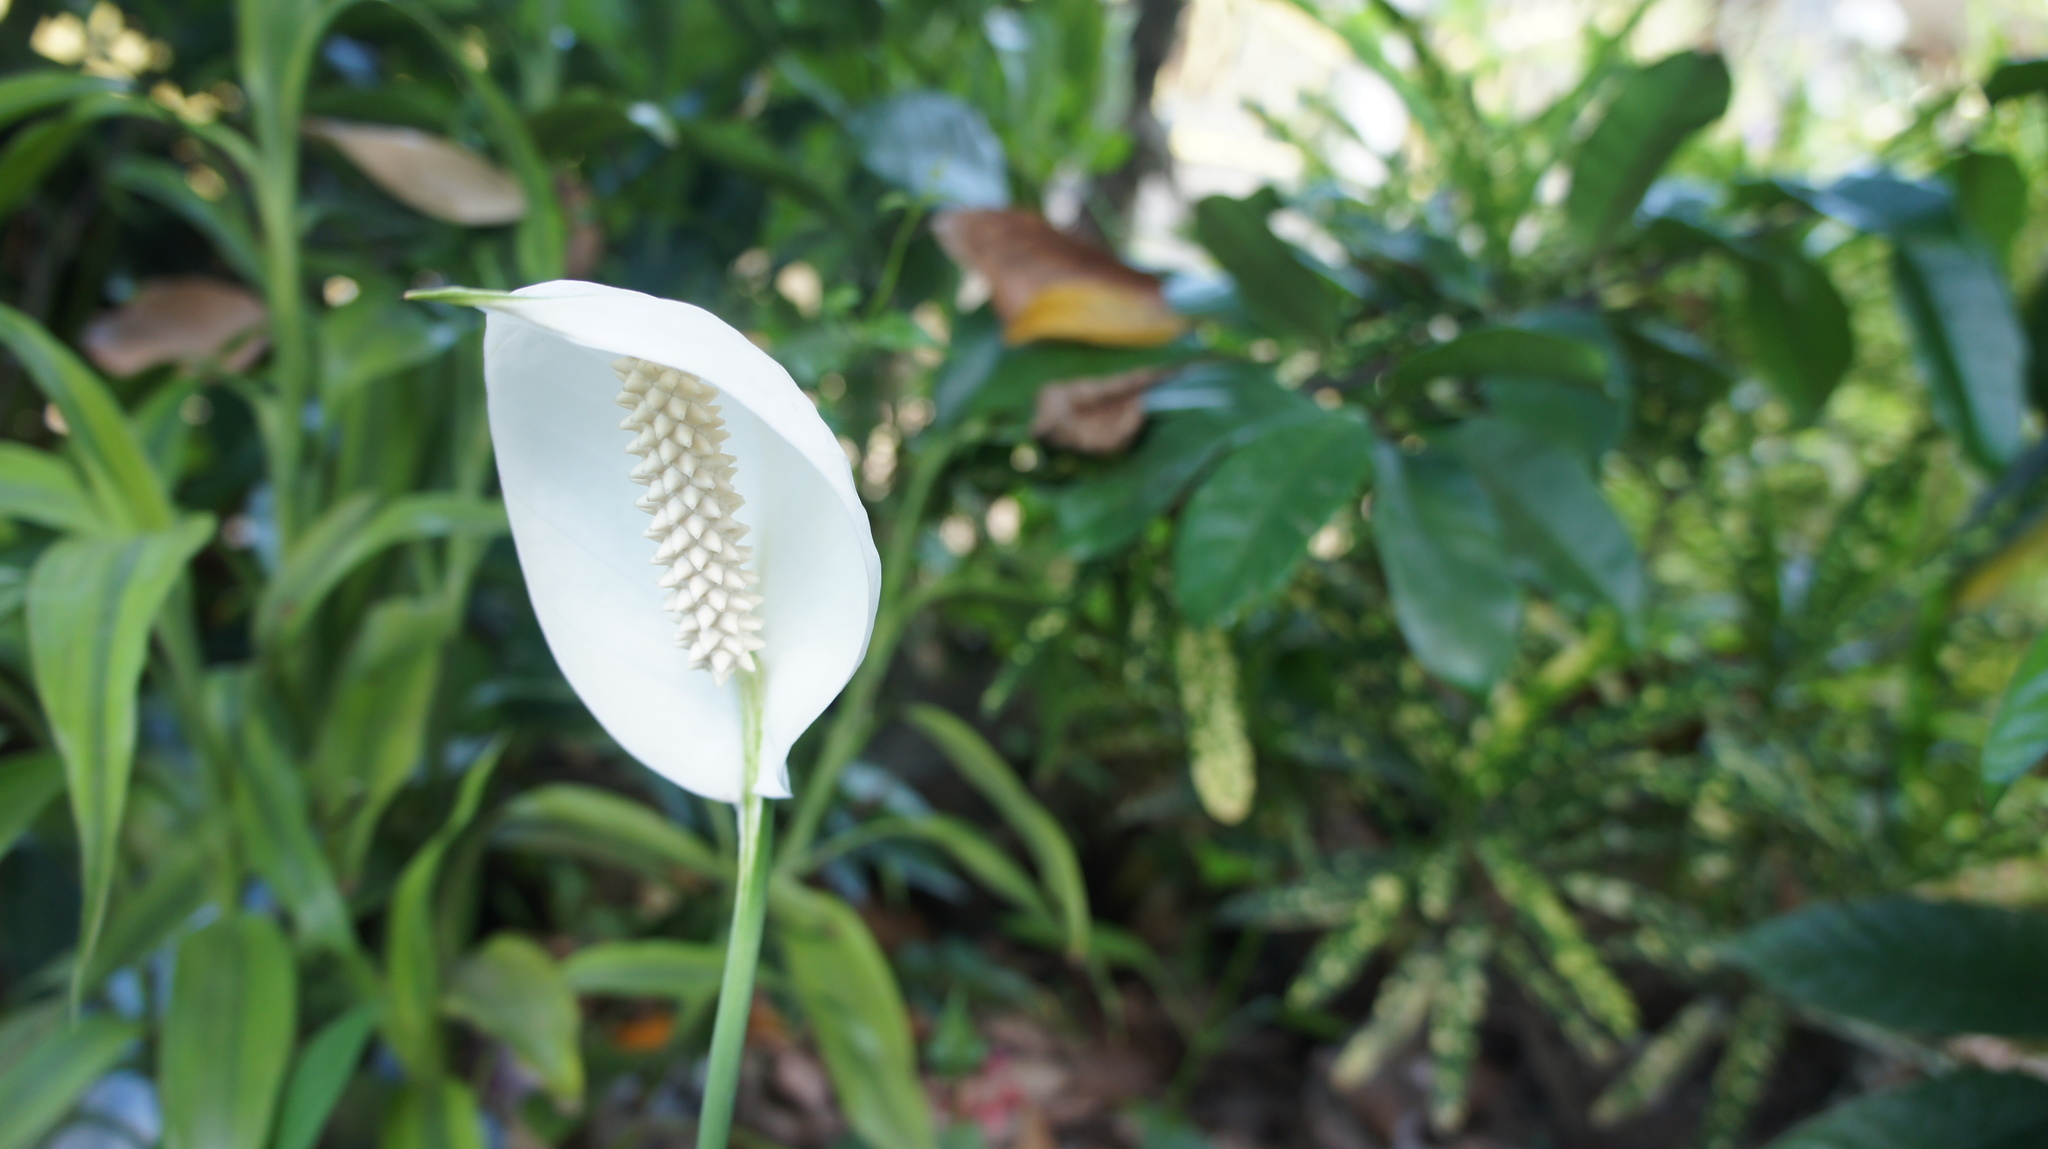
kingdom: Plantae
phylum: Tracheophyta
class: Liliopsida
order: Alismatales
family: Araceae
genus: Spathiphyllum
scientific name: Spathiphyllum wallisii
